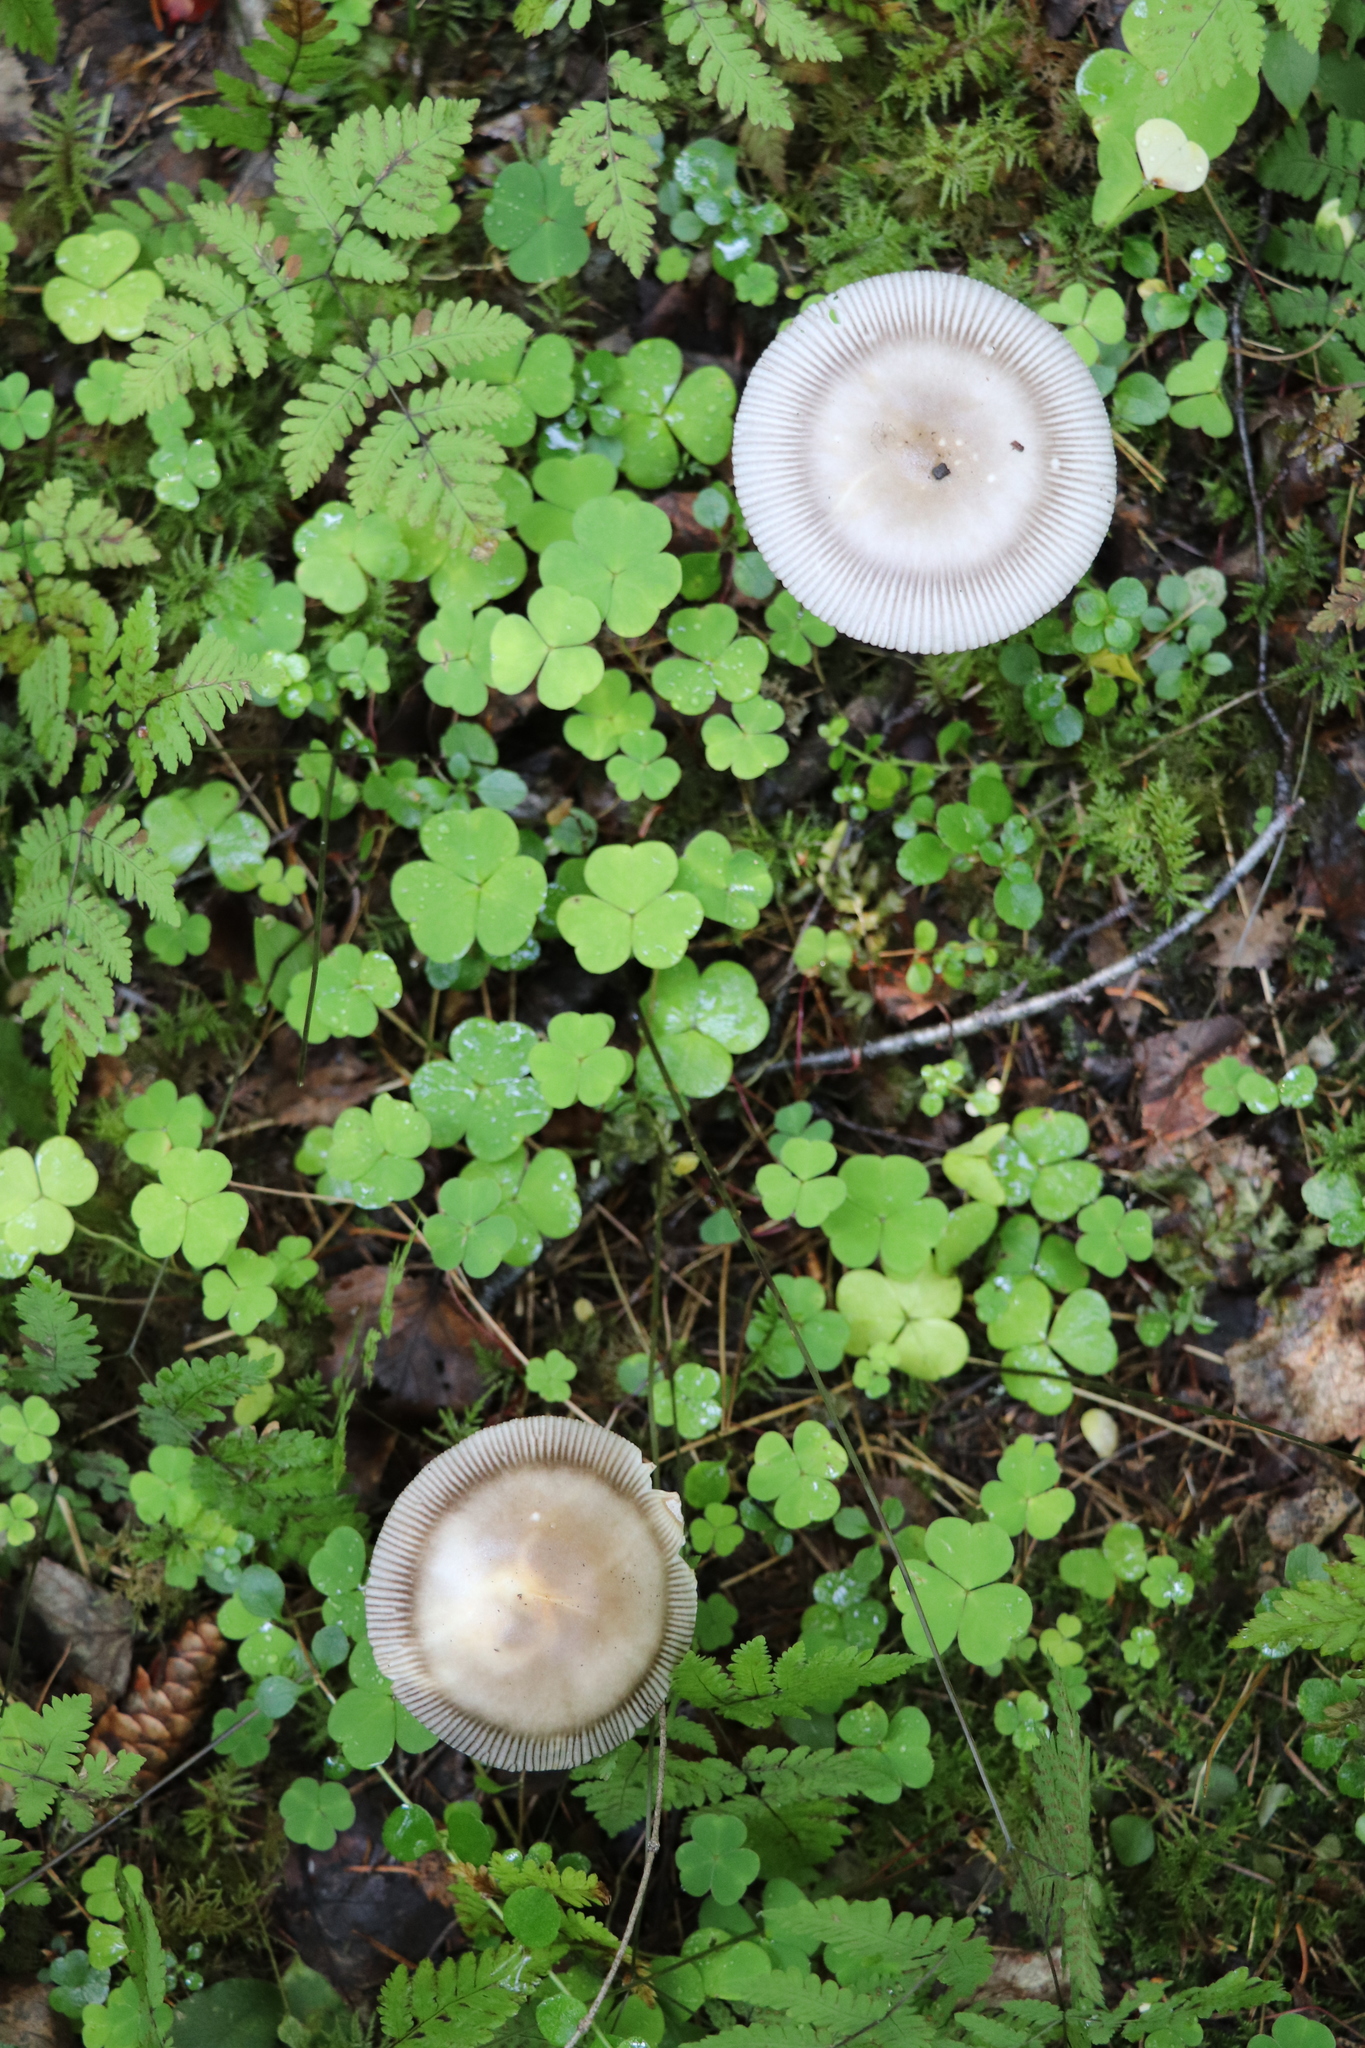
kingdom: Fungi
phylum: Basidiomycota
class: Agaricomycetes
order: Agaricales
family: Amanitaceae
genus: Amanita
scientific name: Amanita battarrae
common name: Banded amanita
